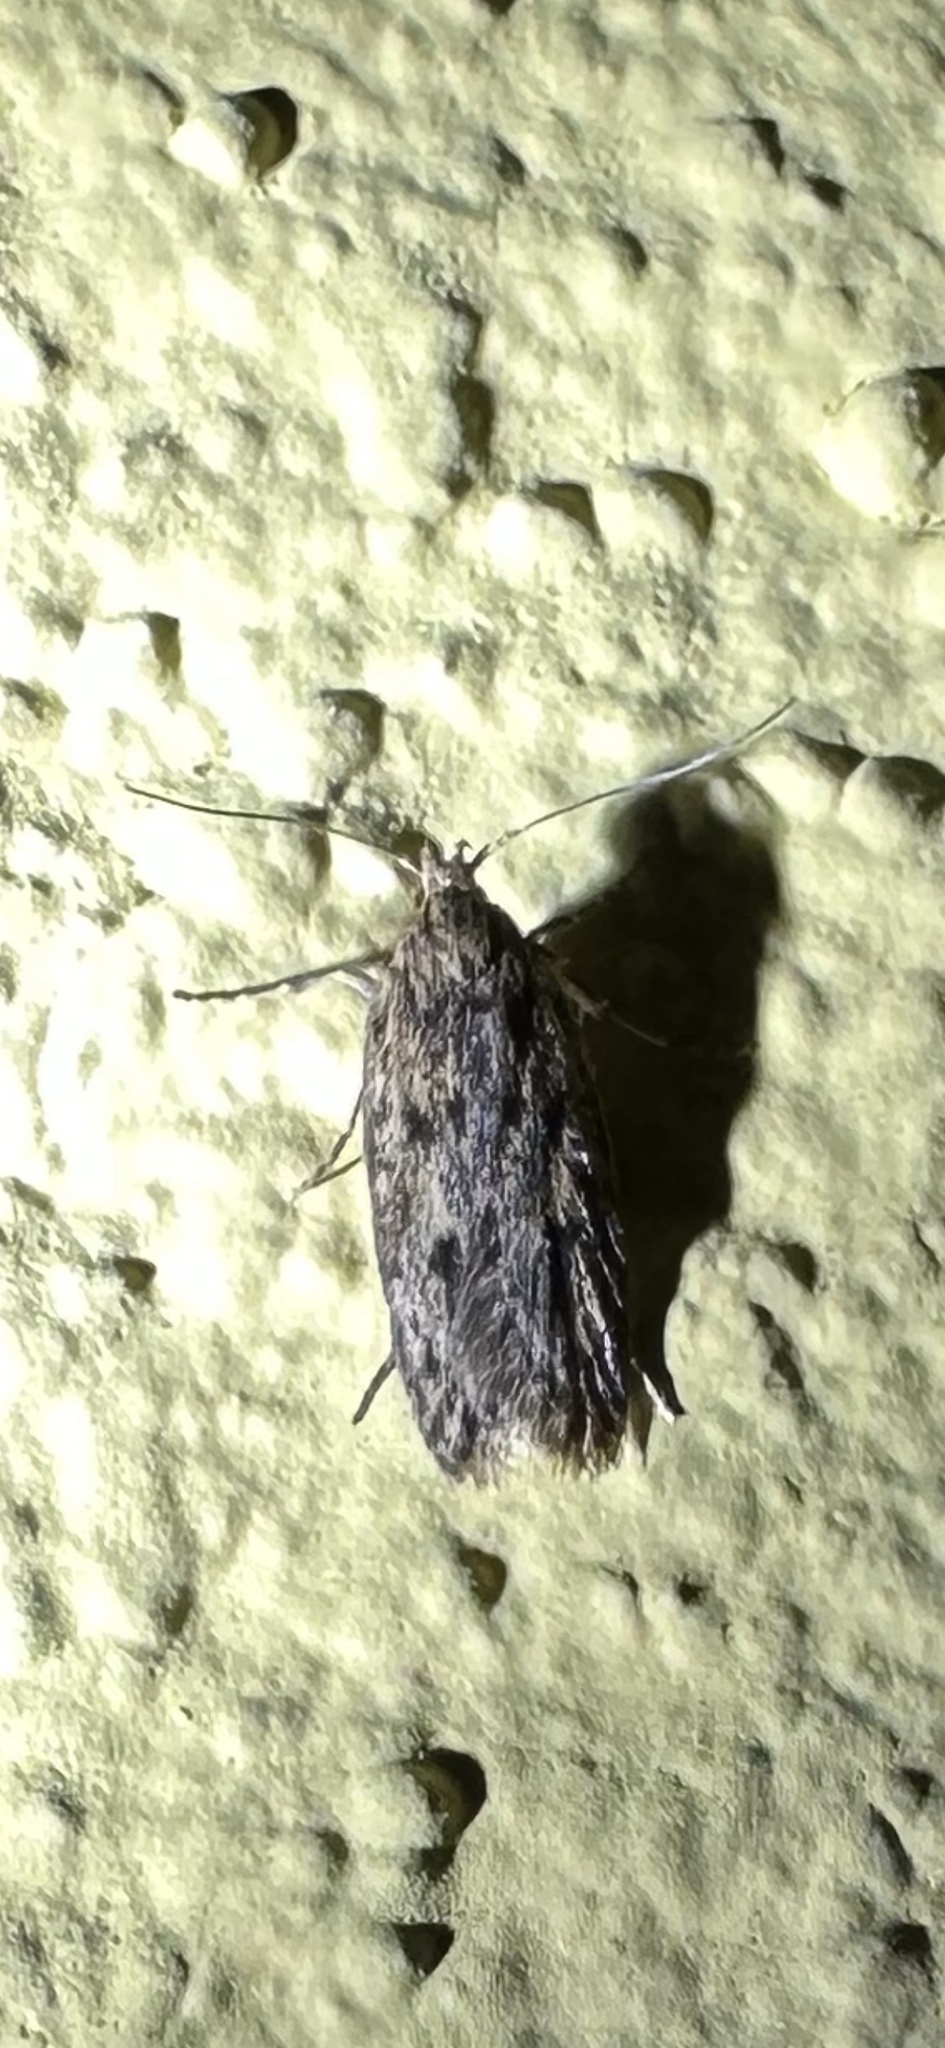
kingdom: Animalia
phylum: Arthropoda
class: Insecta
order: Lepidoptera
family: Oecophoridae
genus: Hofmannophila
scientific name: Hofmannophila pseudospretella
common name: Brown house moth
